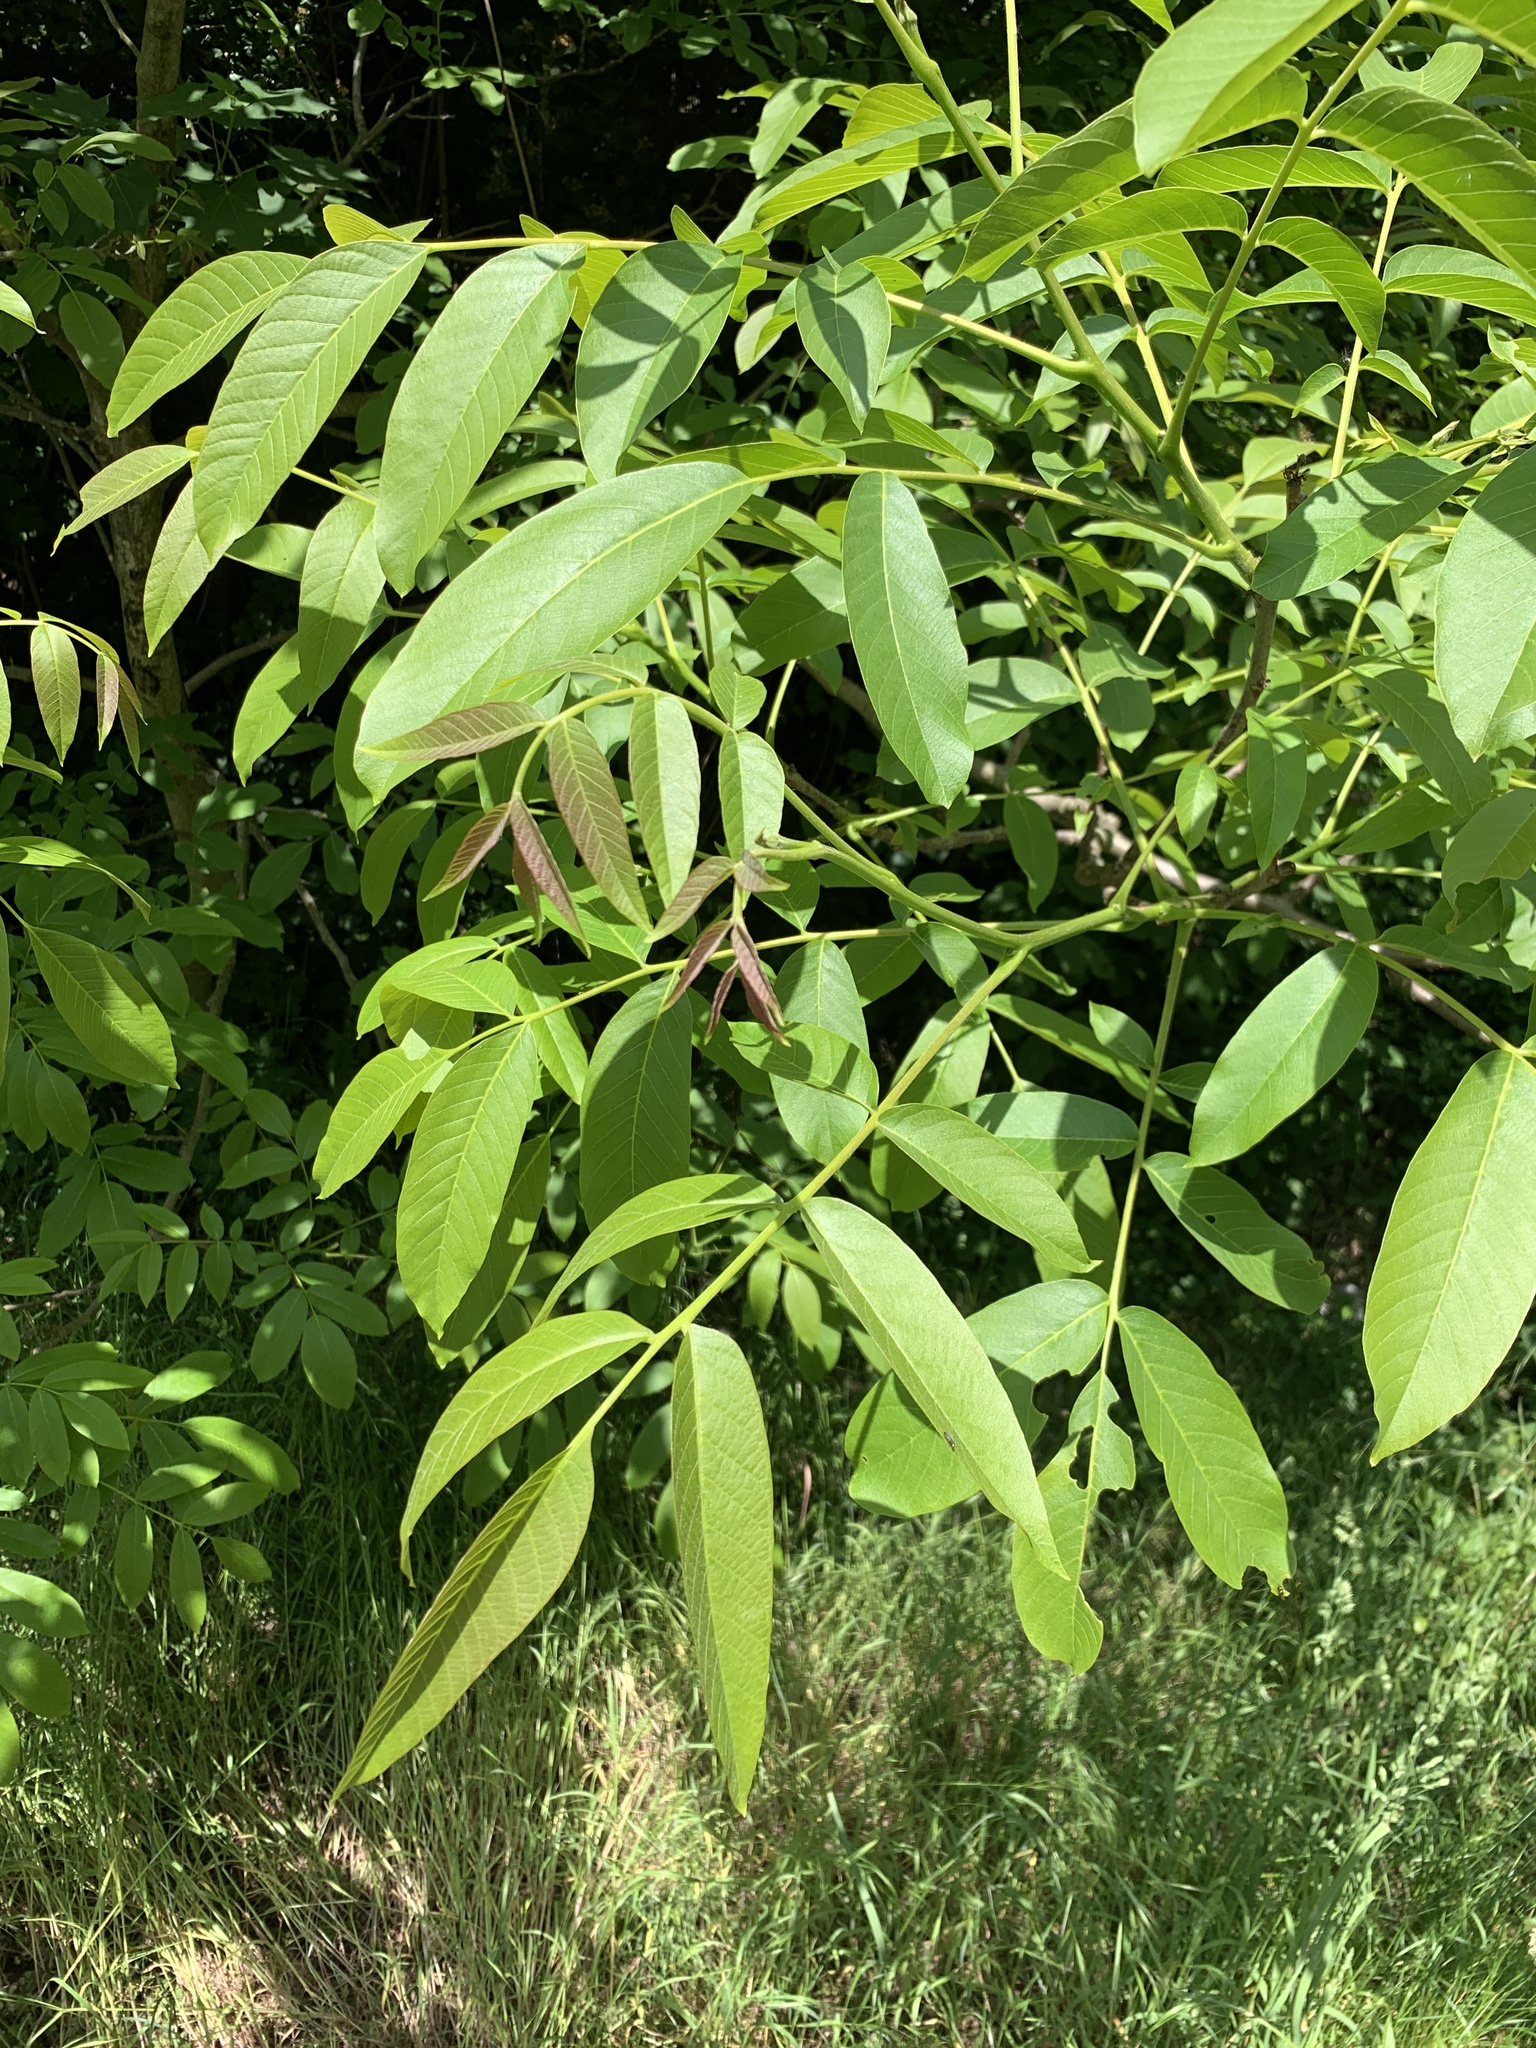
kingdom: Plantae
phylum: Tracheophyta
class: Magnoliopsida
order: Fagales
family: Juglandaceae
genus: Juglans
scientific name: Juglans regia
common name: Walnut
